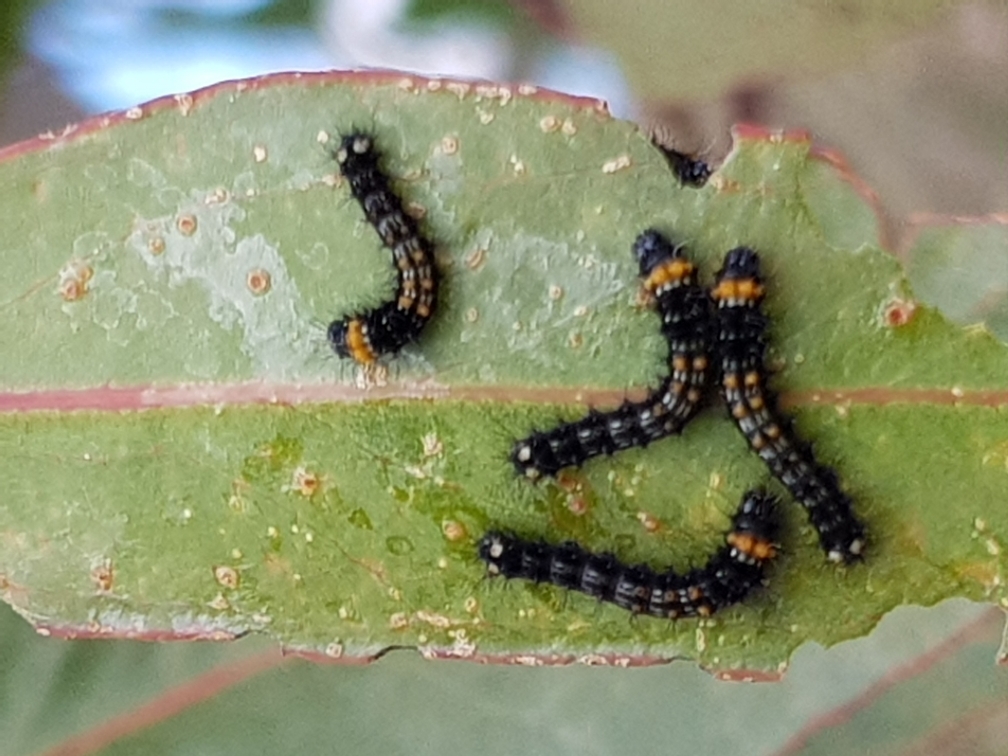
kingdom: Animalia
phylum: Arthropoda
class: Insecta
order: Lepidoptera
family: Saturniidae
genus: Opodiphthera
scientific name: Opodiphthera
